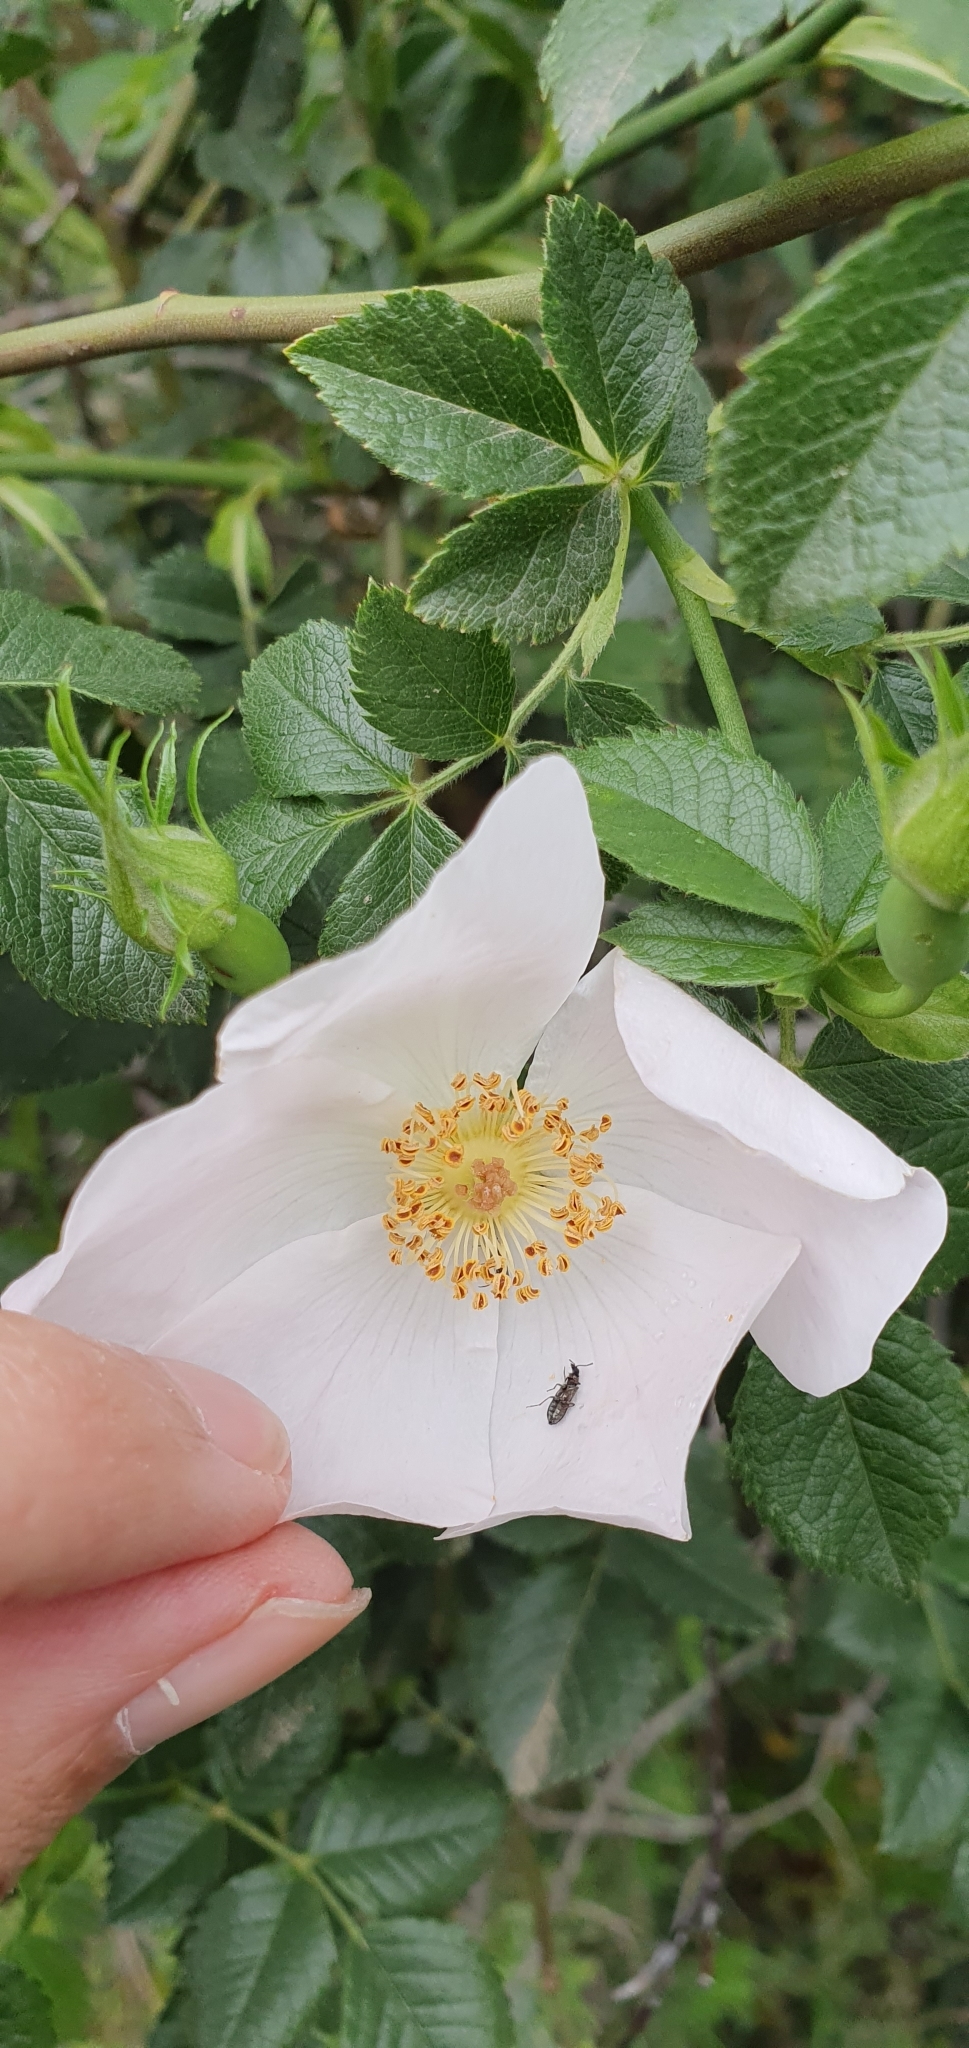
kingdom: Plantae
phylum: Tracheophyta
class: Magnoliopsida
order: Rosales
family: Rosaceae
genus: Rosa
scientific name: Rosa dumalis
